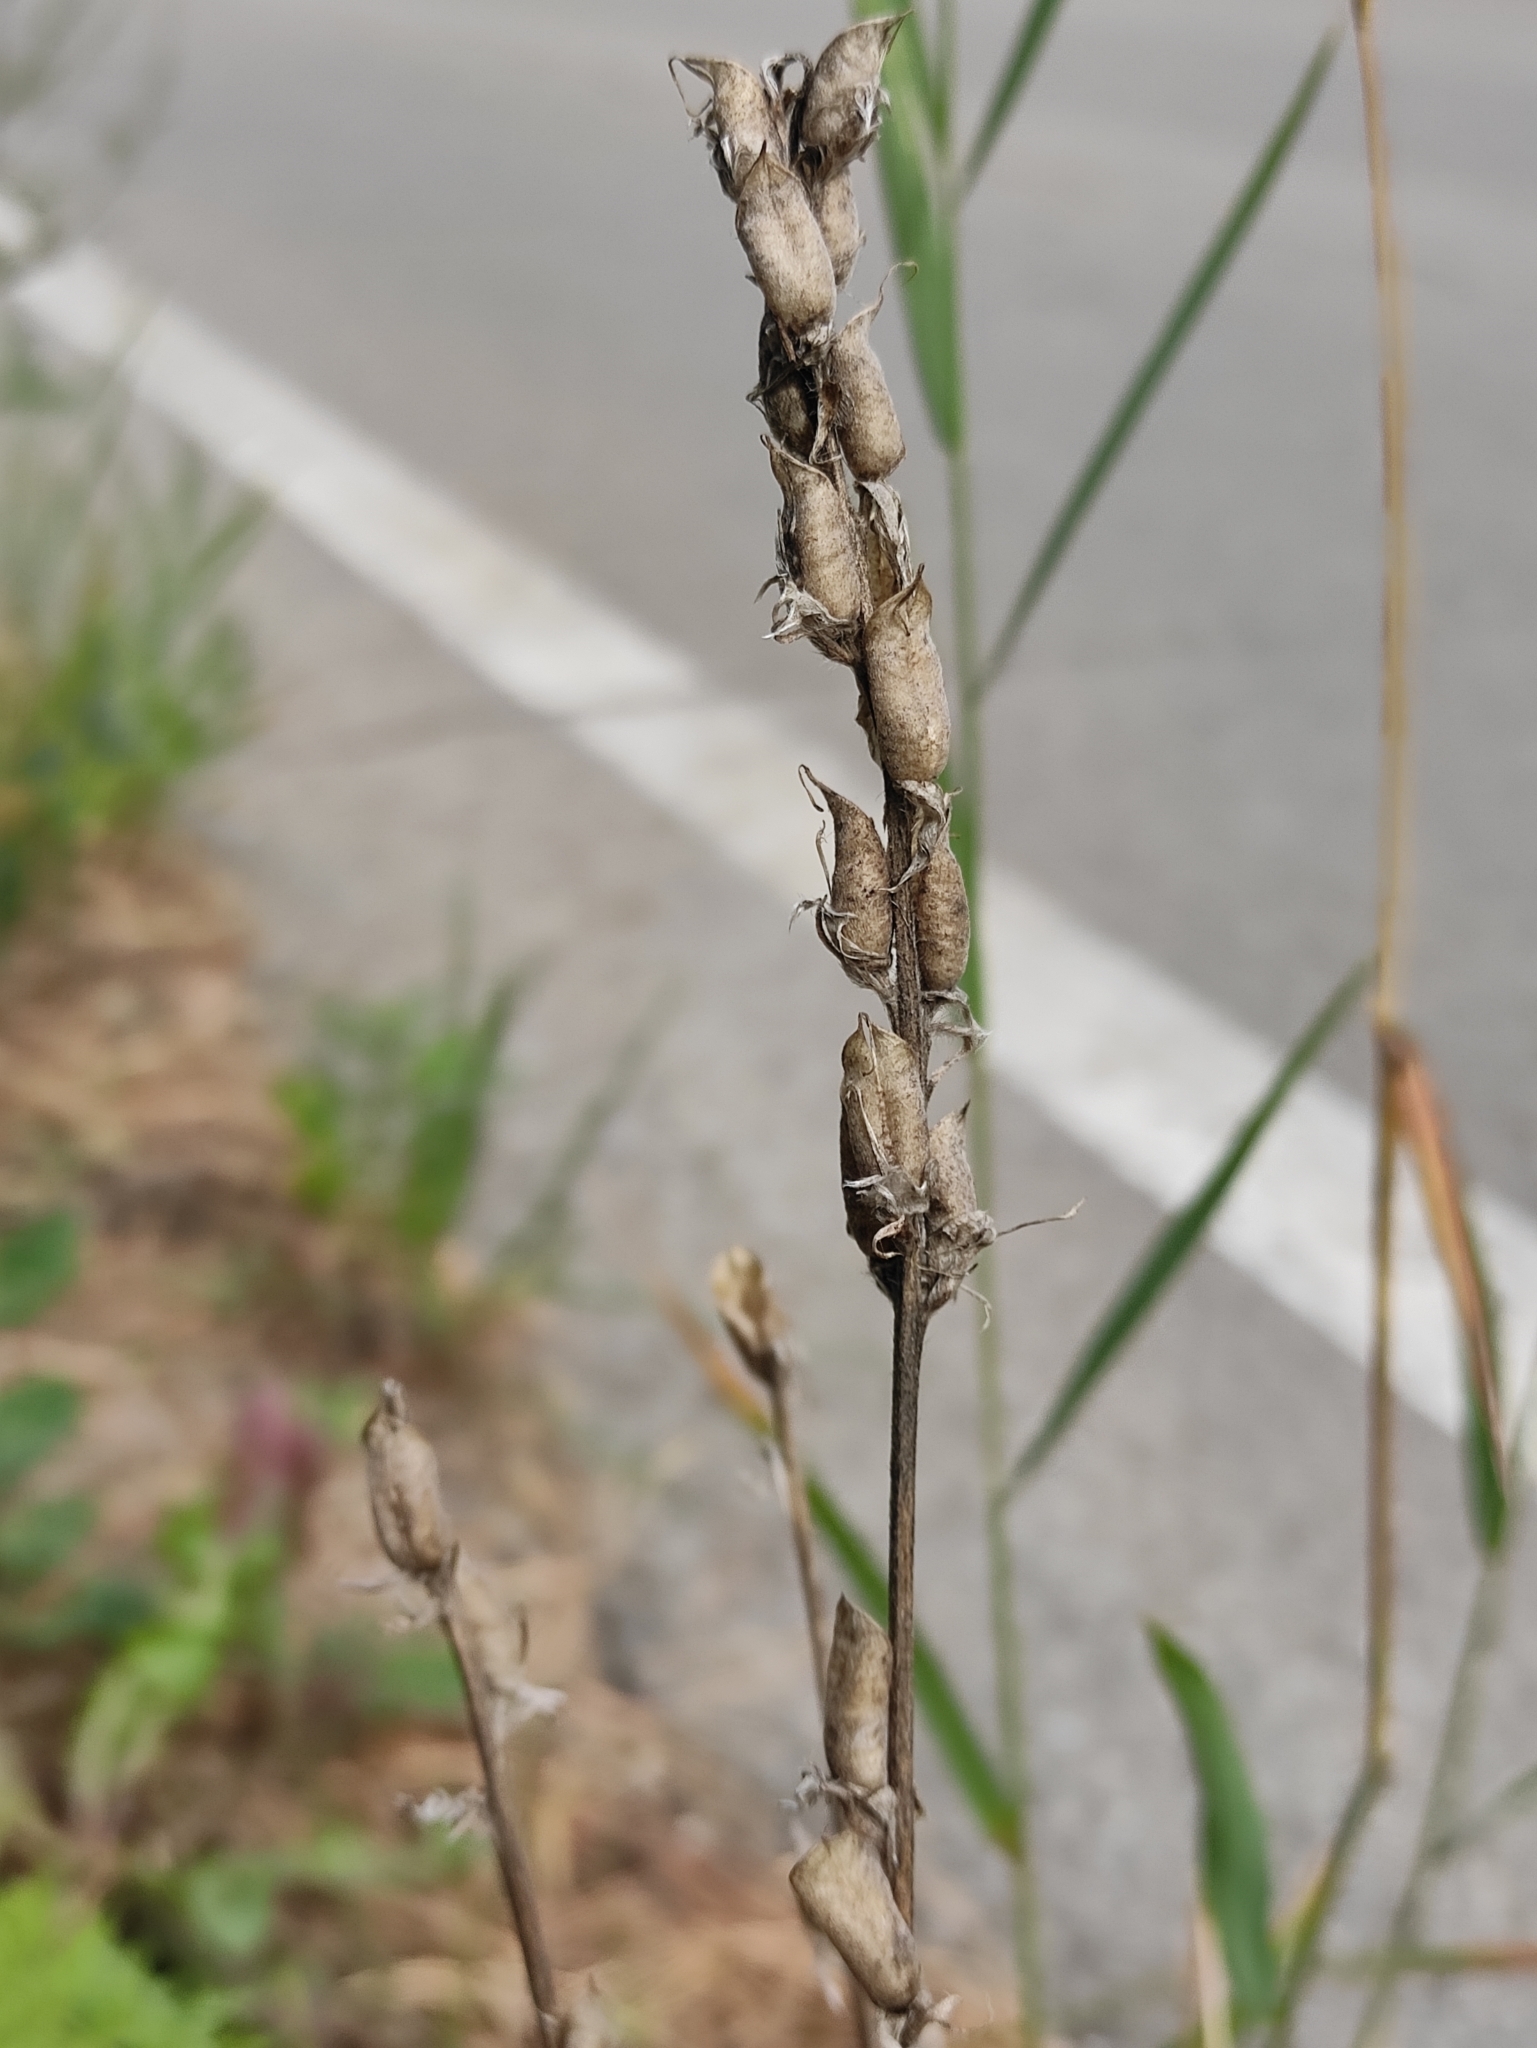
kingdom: Plantae
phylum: Tracheophyta
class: Magnoliopsida
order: Fabales
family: Fabaceae
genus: Oxytropis
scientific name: Oxytropis strobilacea
